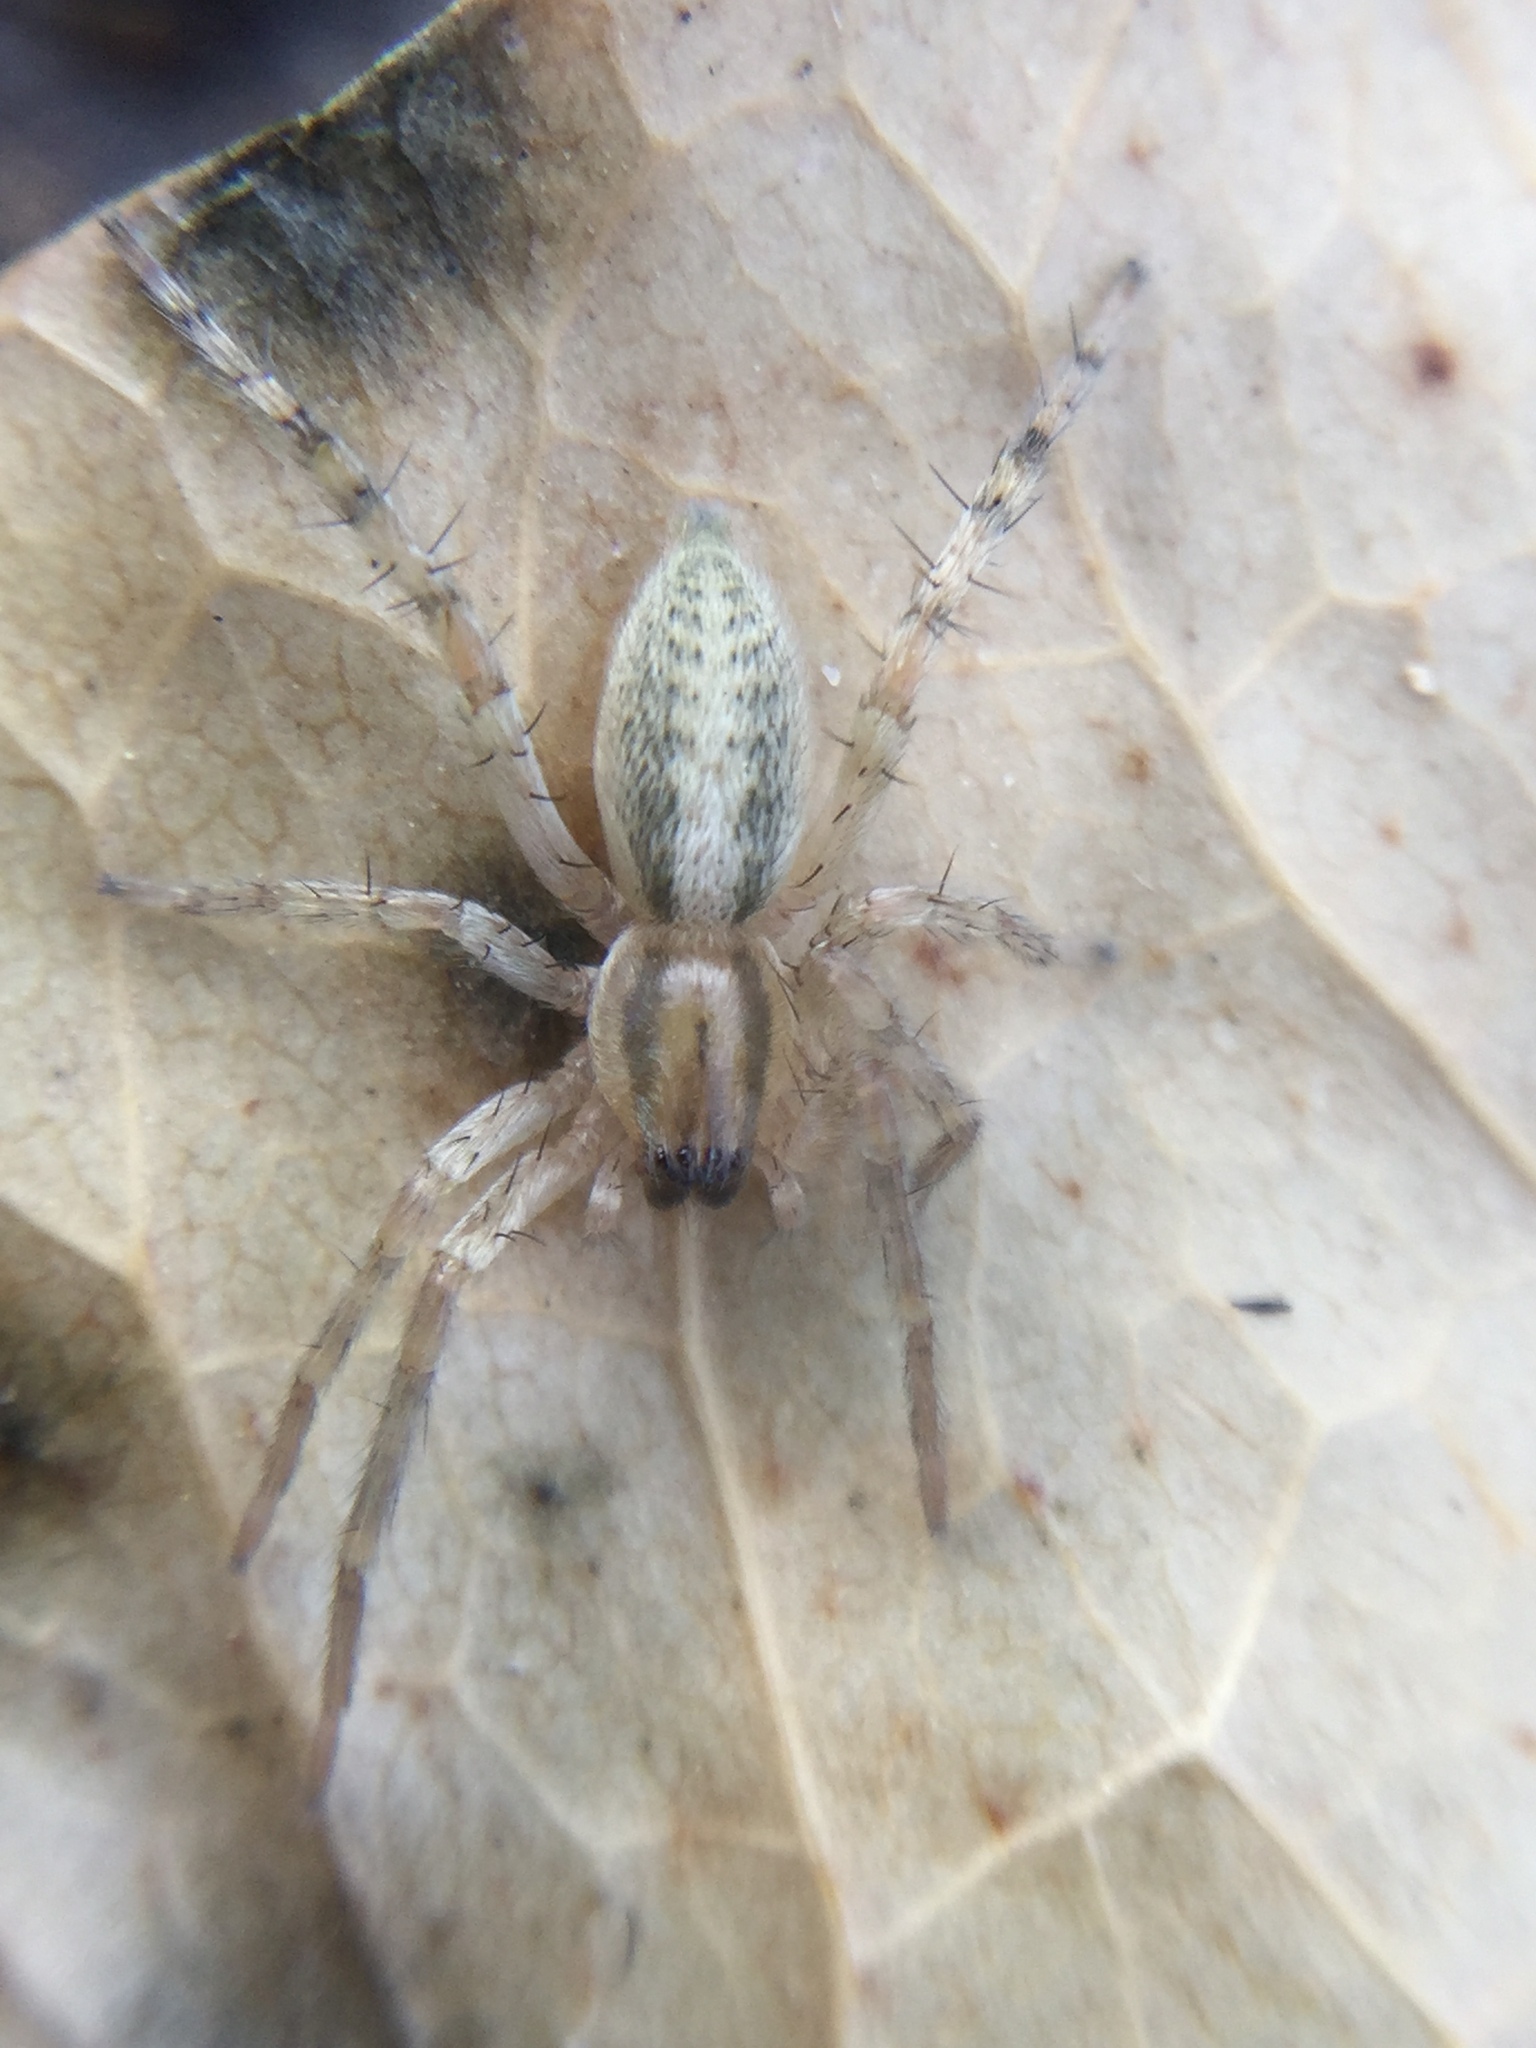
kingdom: Animalia
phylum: Arthropoda
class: Arachnida
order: Araneae
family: Anyphaenidae
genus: Hibana
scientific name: Hibana gracilis
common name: Garden ghost spider
